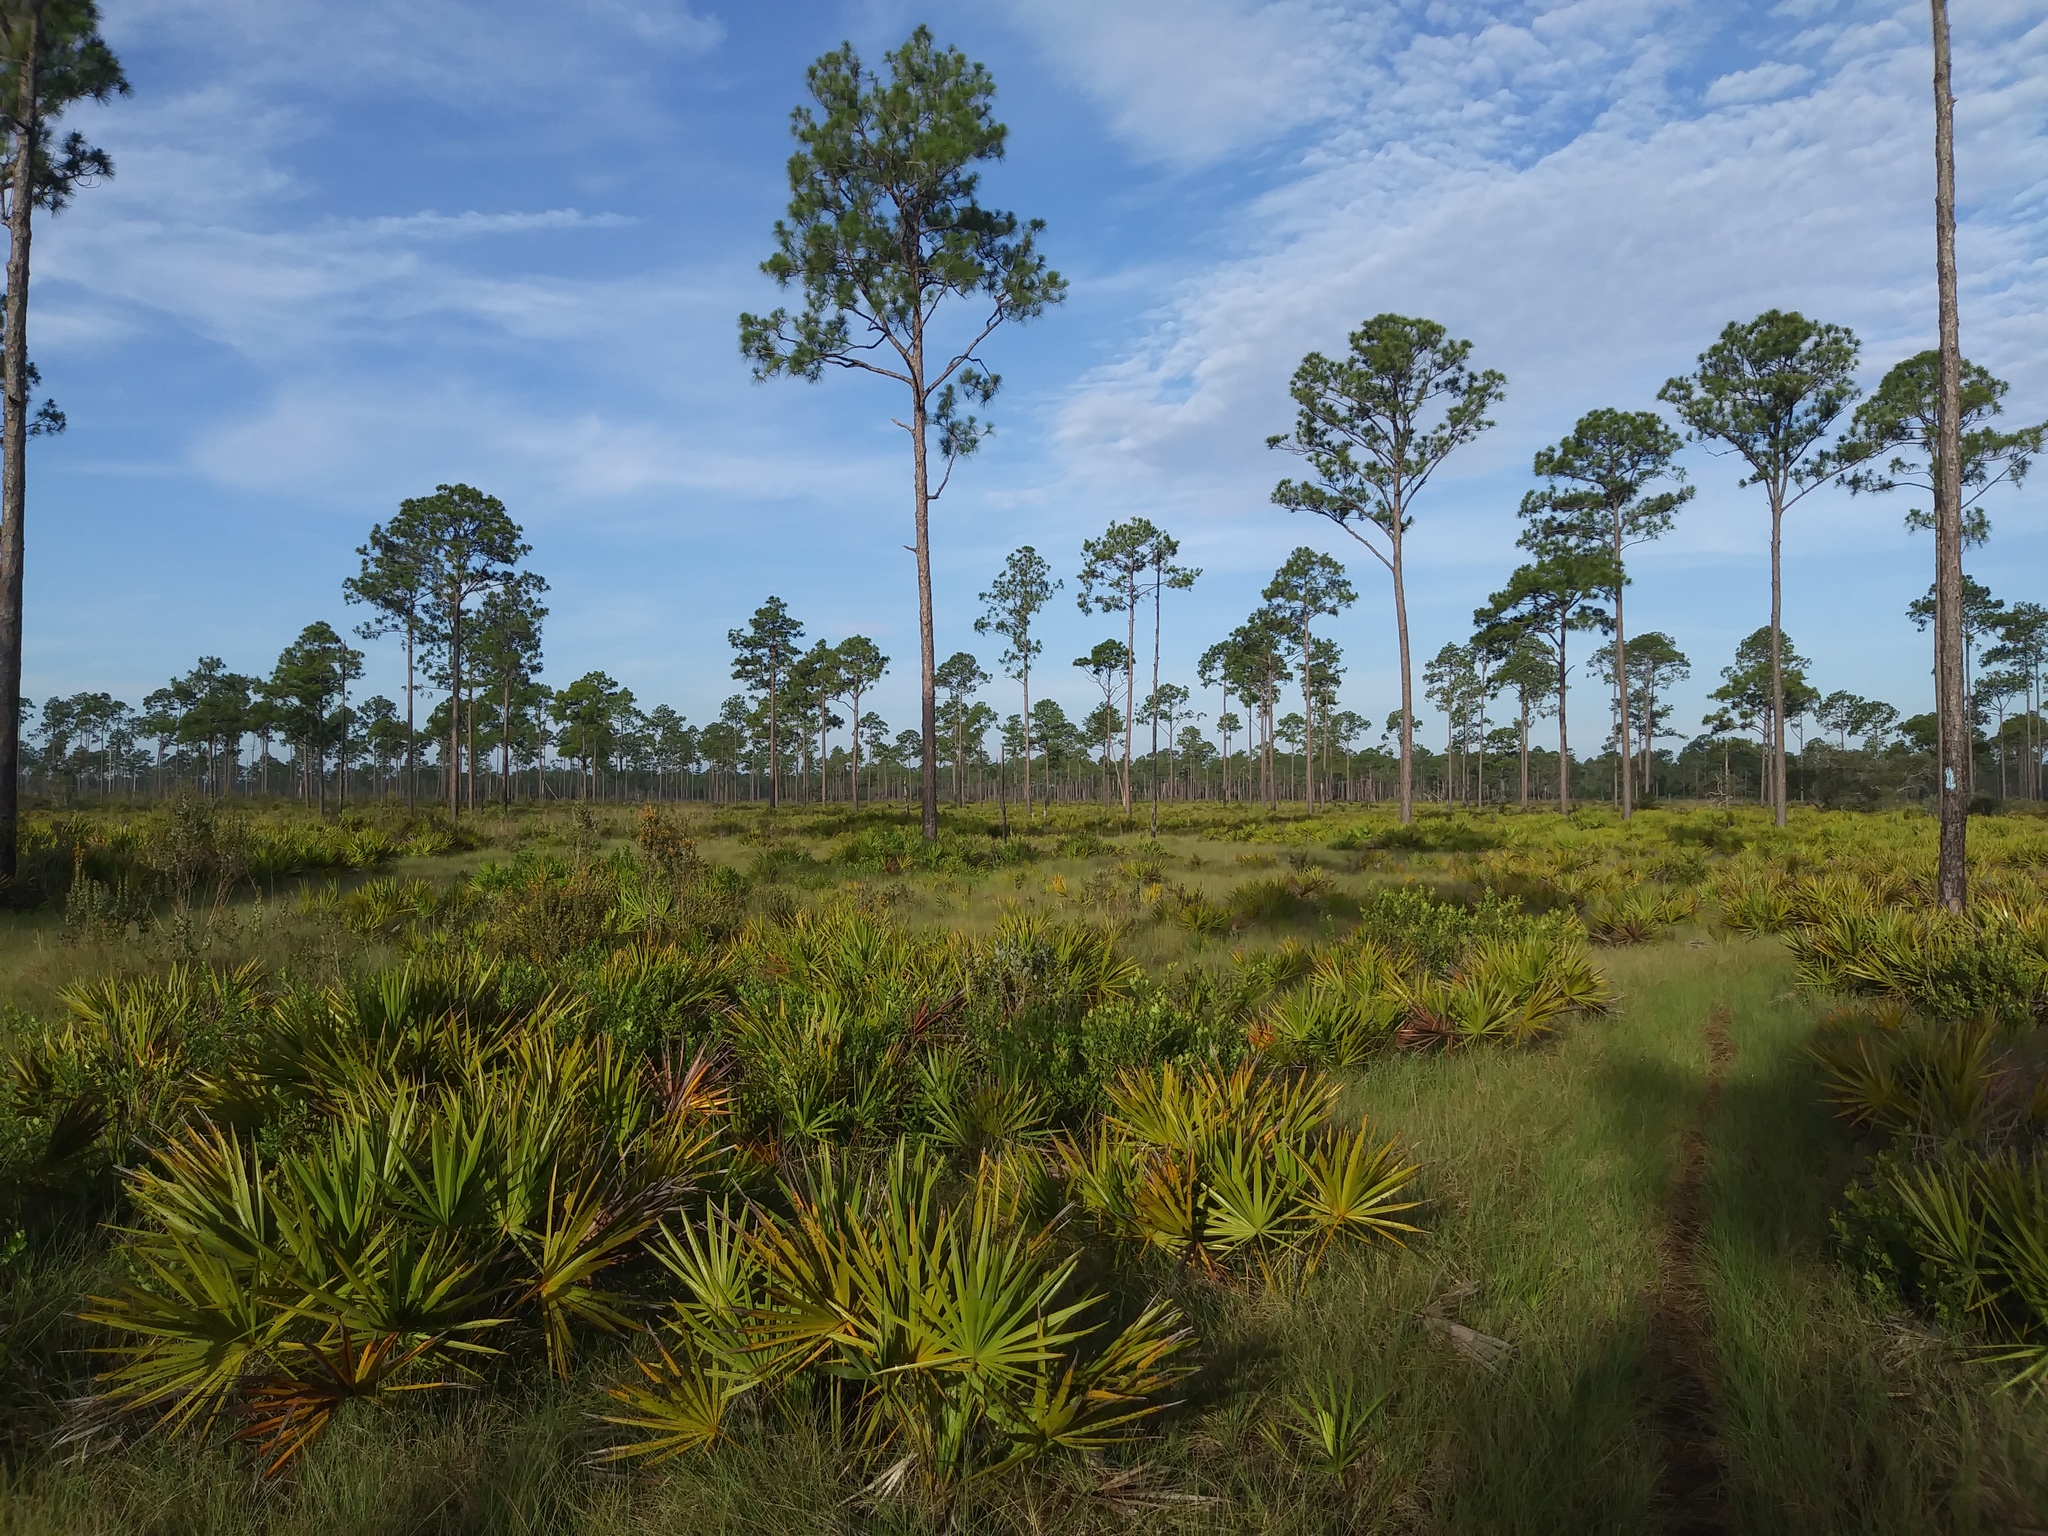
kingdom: Plantae
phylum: Tracheophyta
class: Pinopsida
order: Pinales
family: Pinaceae
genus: Pinus
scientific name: Pinus elliottii
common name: Slash pine
